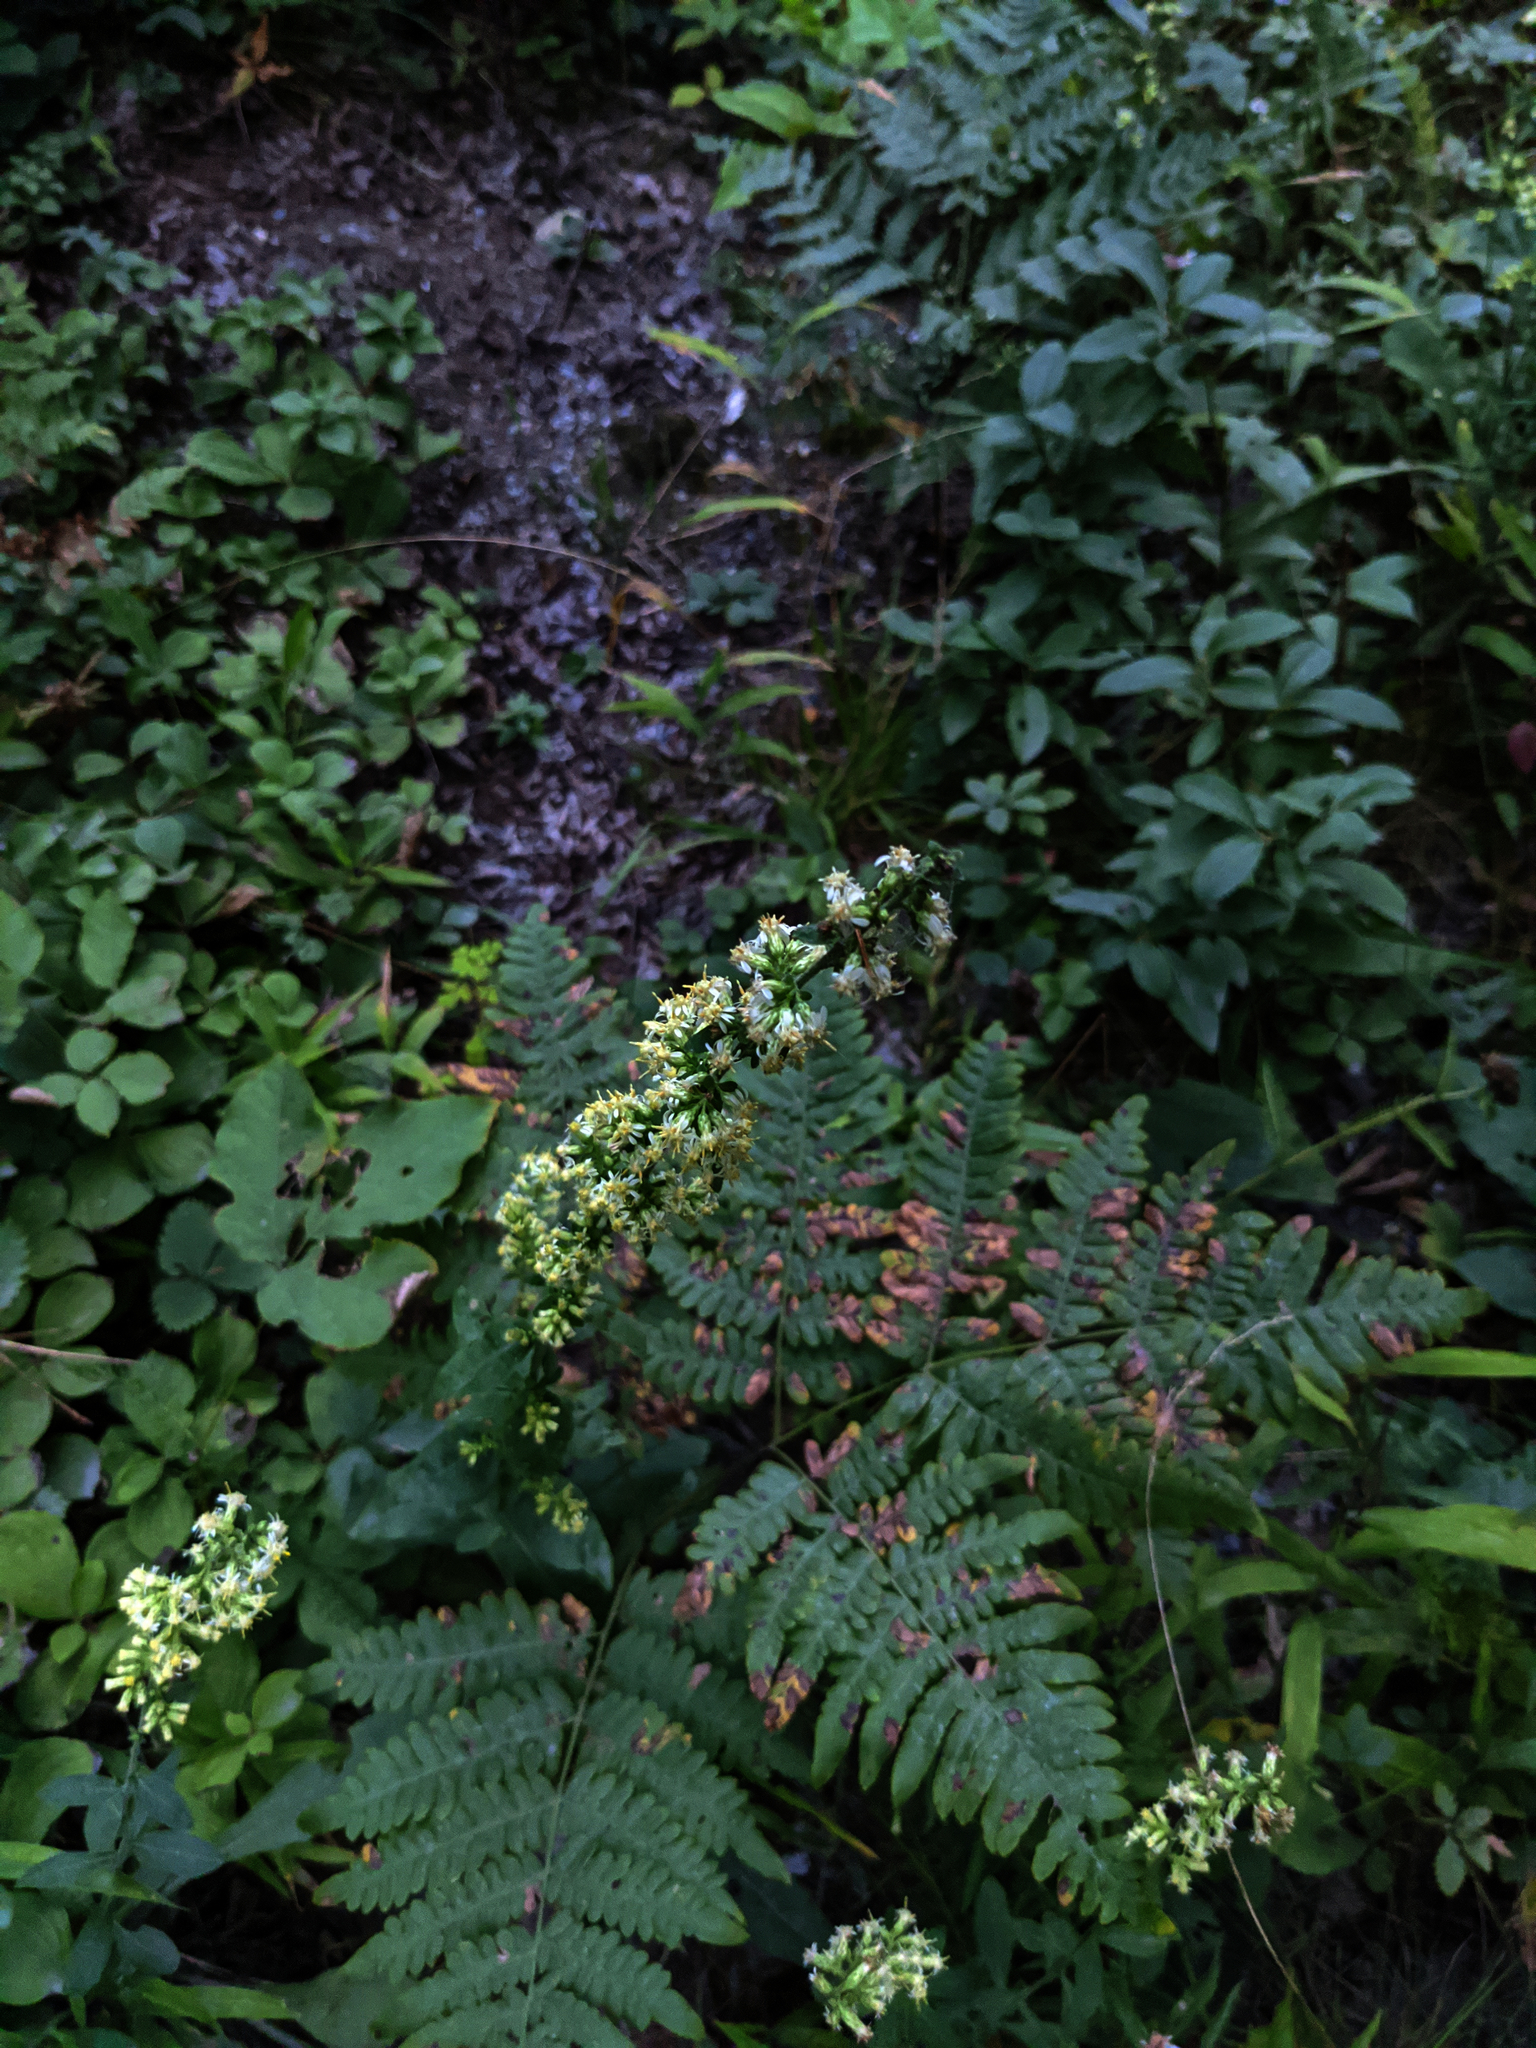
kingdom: Plantae
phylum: Tracheophyta
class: Magnoliopsida
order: Asterales
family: Asteraceae
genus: Solidago
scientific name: Solidago bicolor
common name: Silverrod
